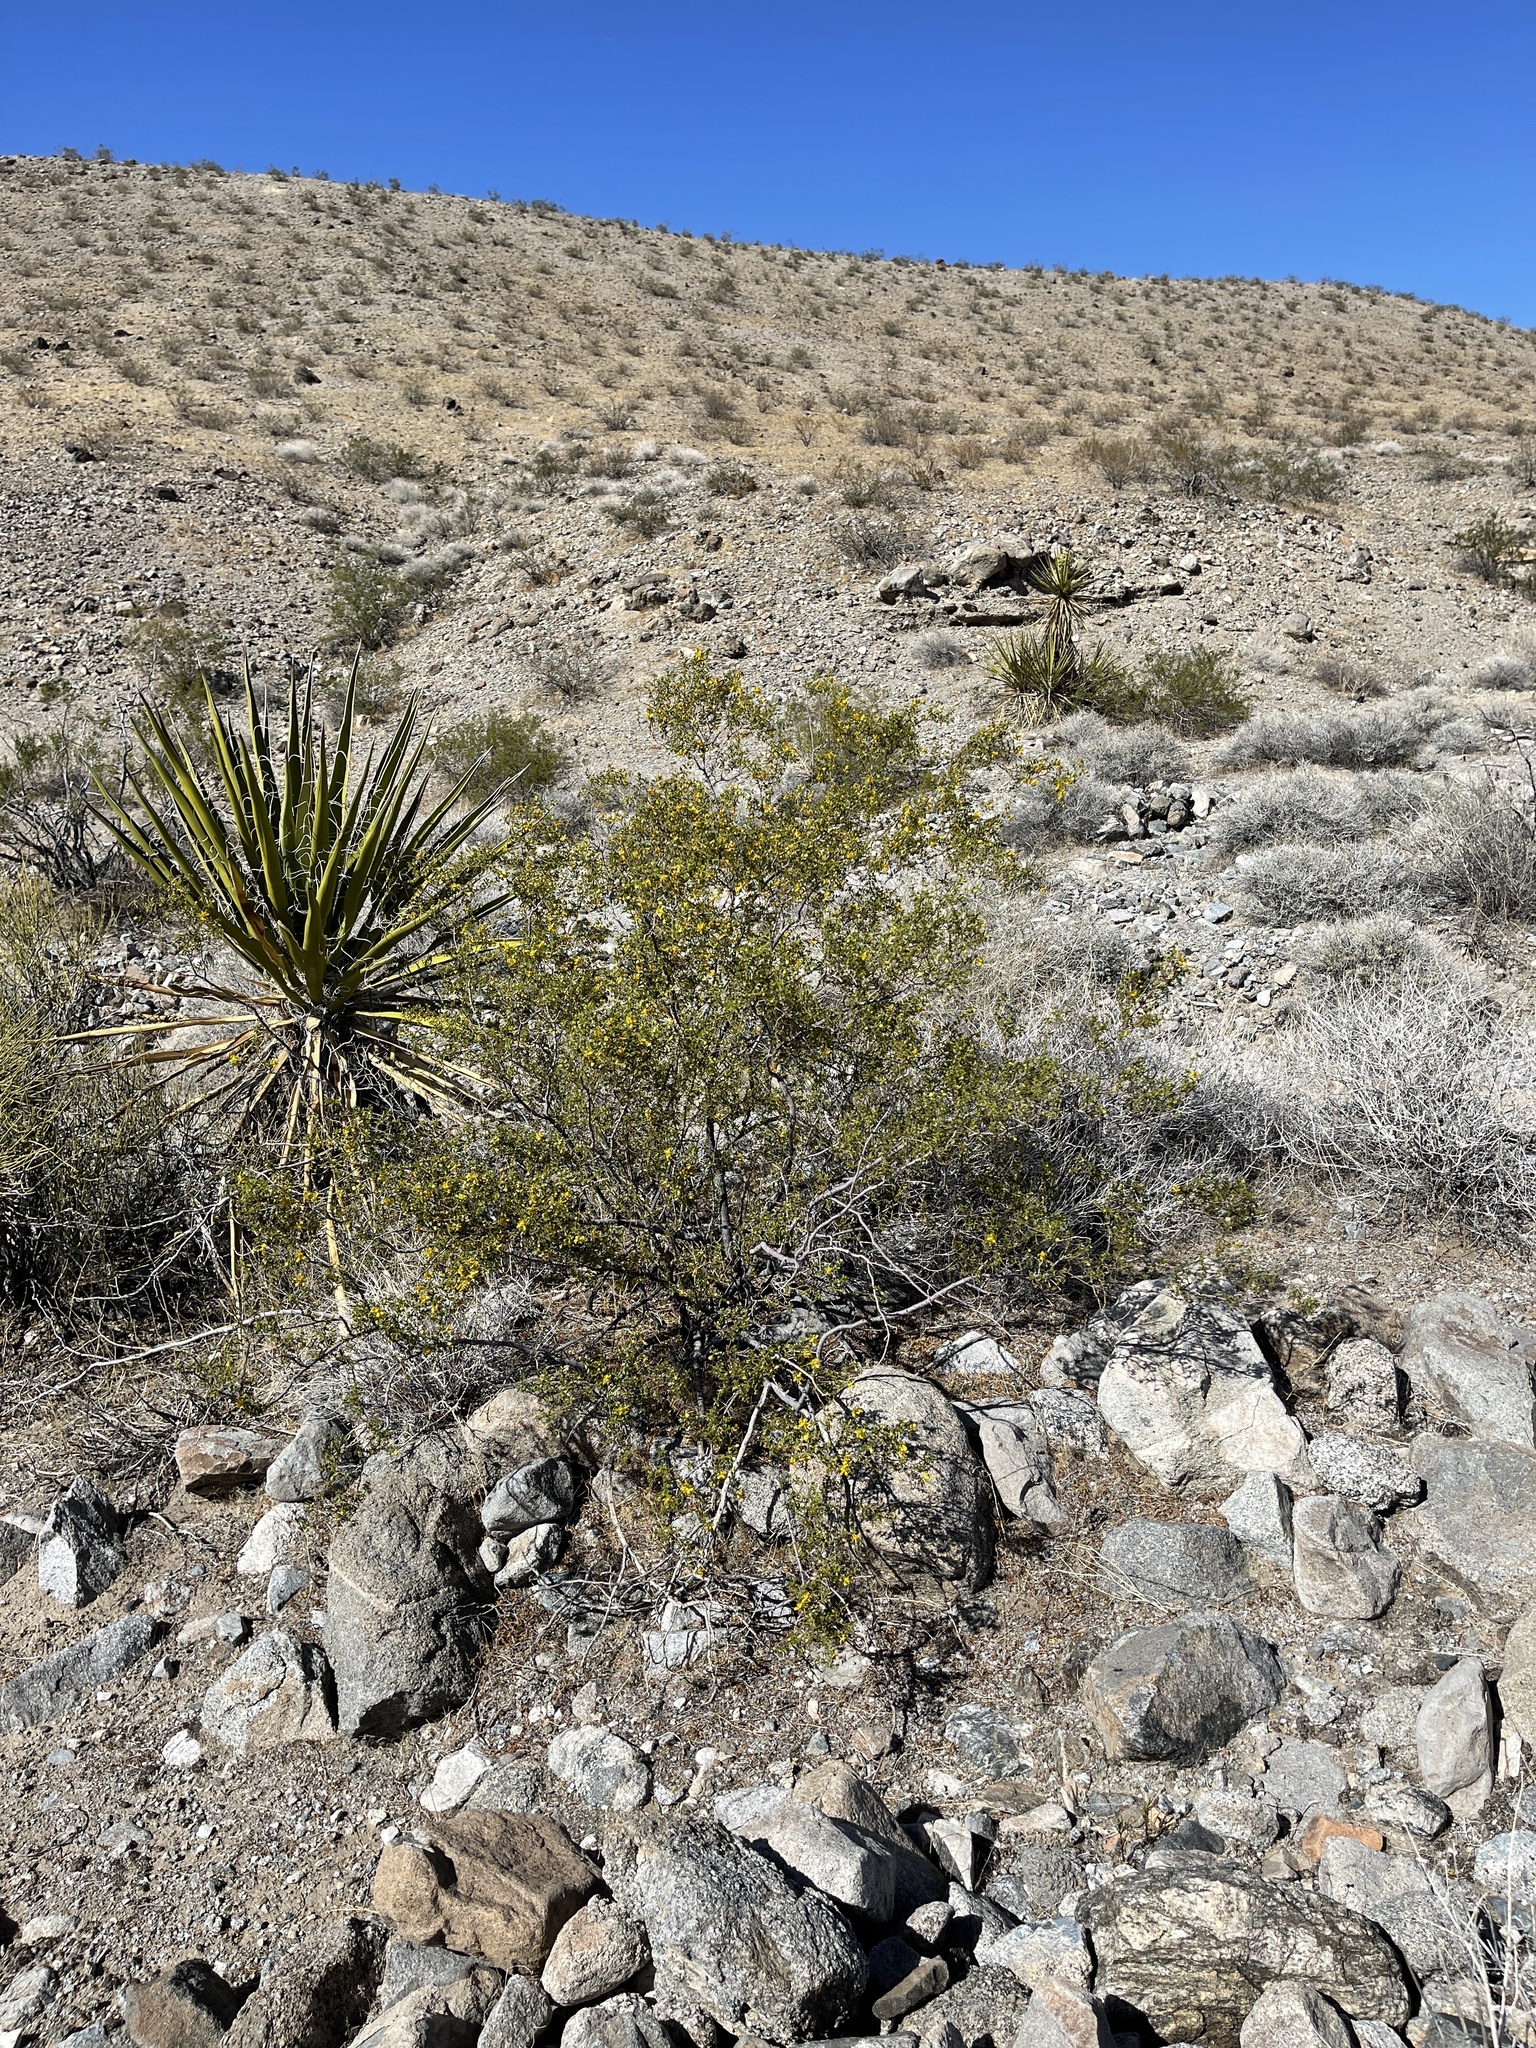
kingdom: Plantae
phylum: Tracheophyta
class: Magnoliopsida
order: Zygophyllales
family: Zygophyllaceae
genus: Larrea
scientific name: Larrea tridentata
